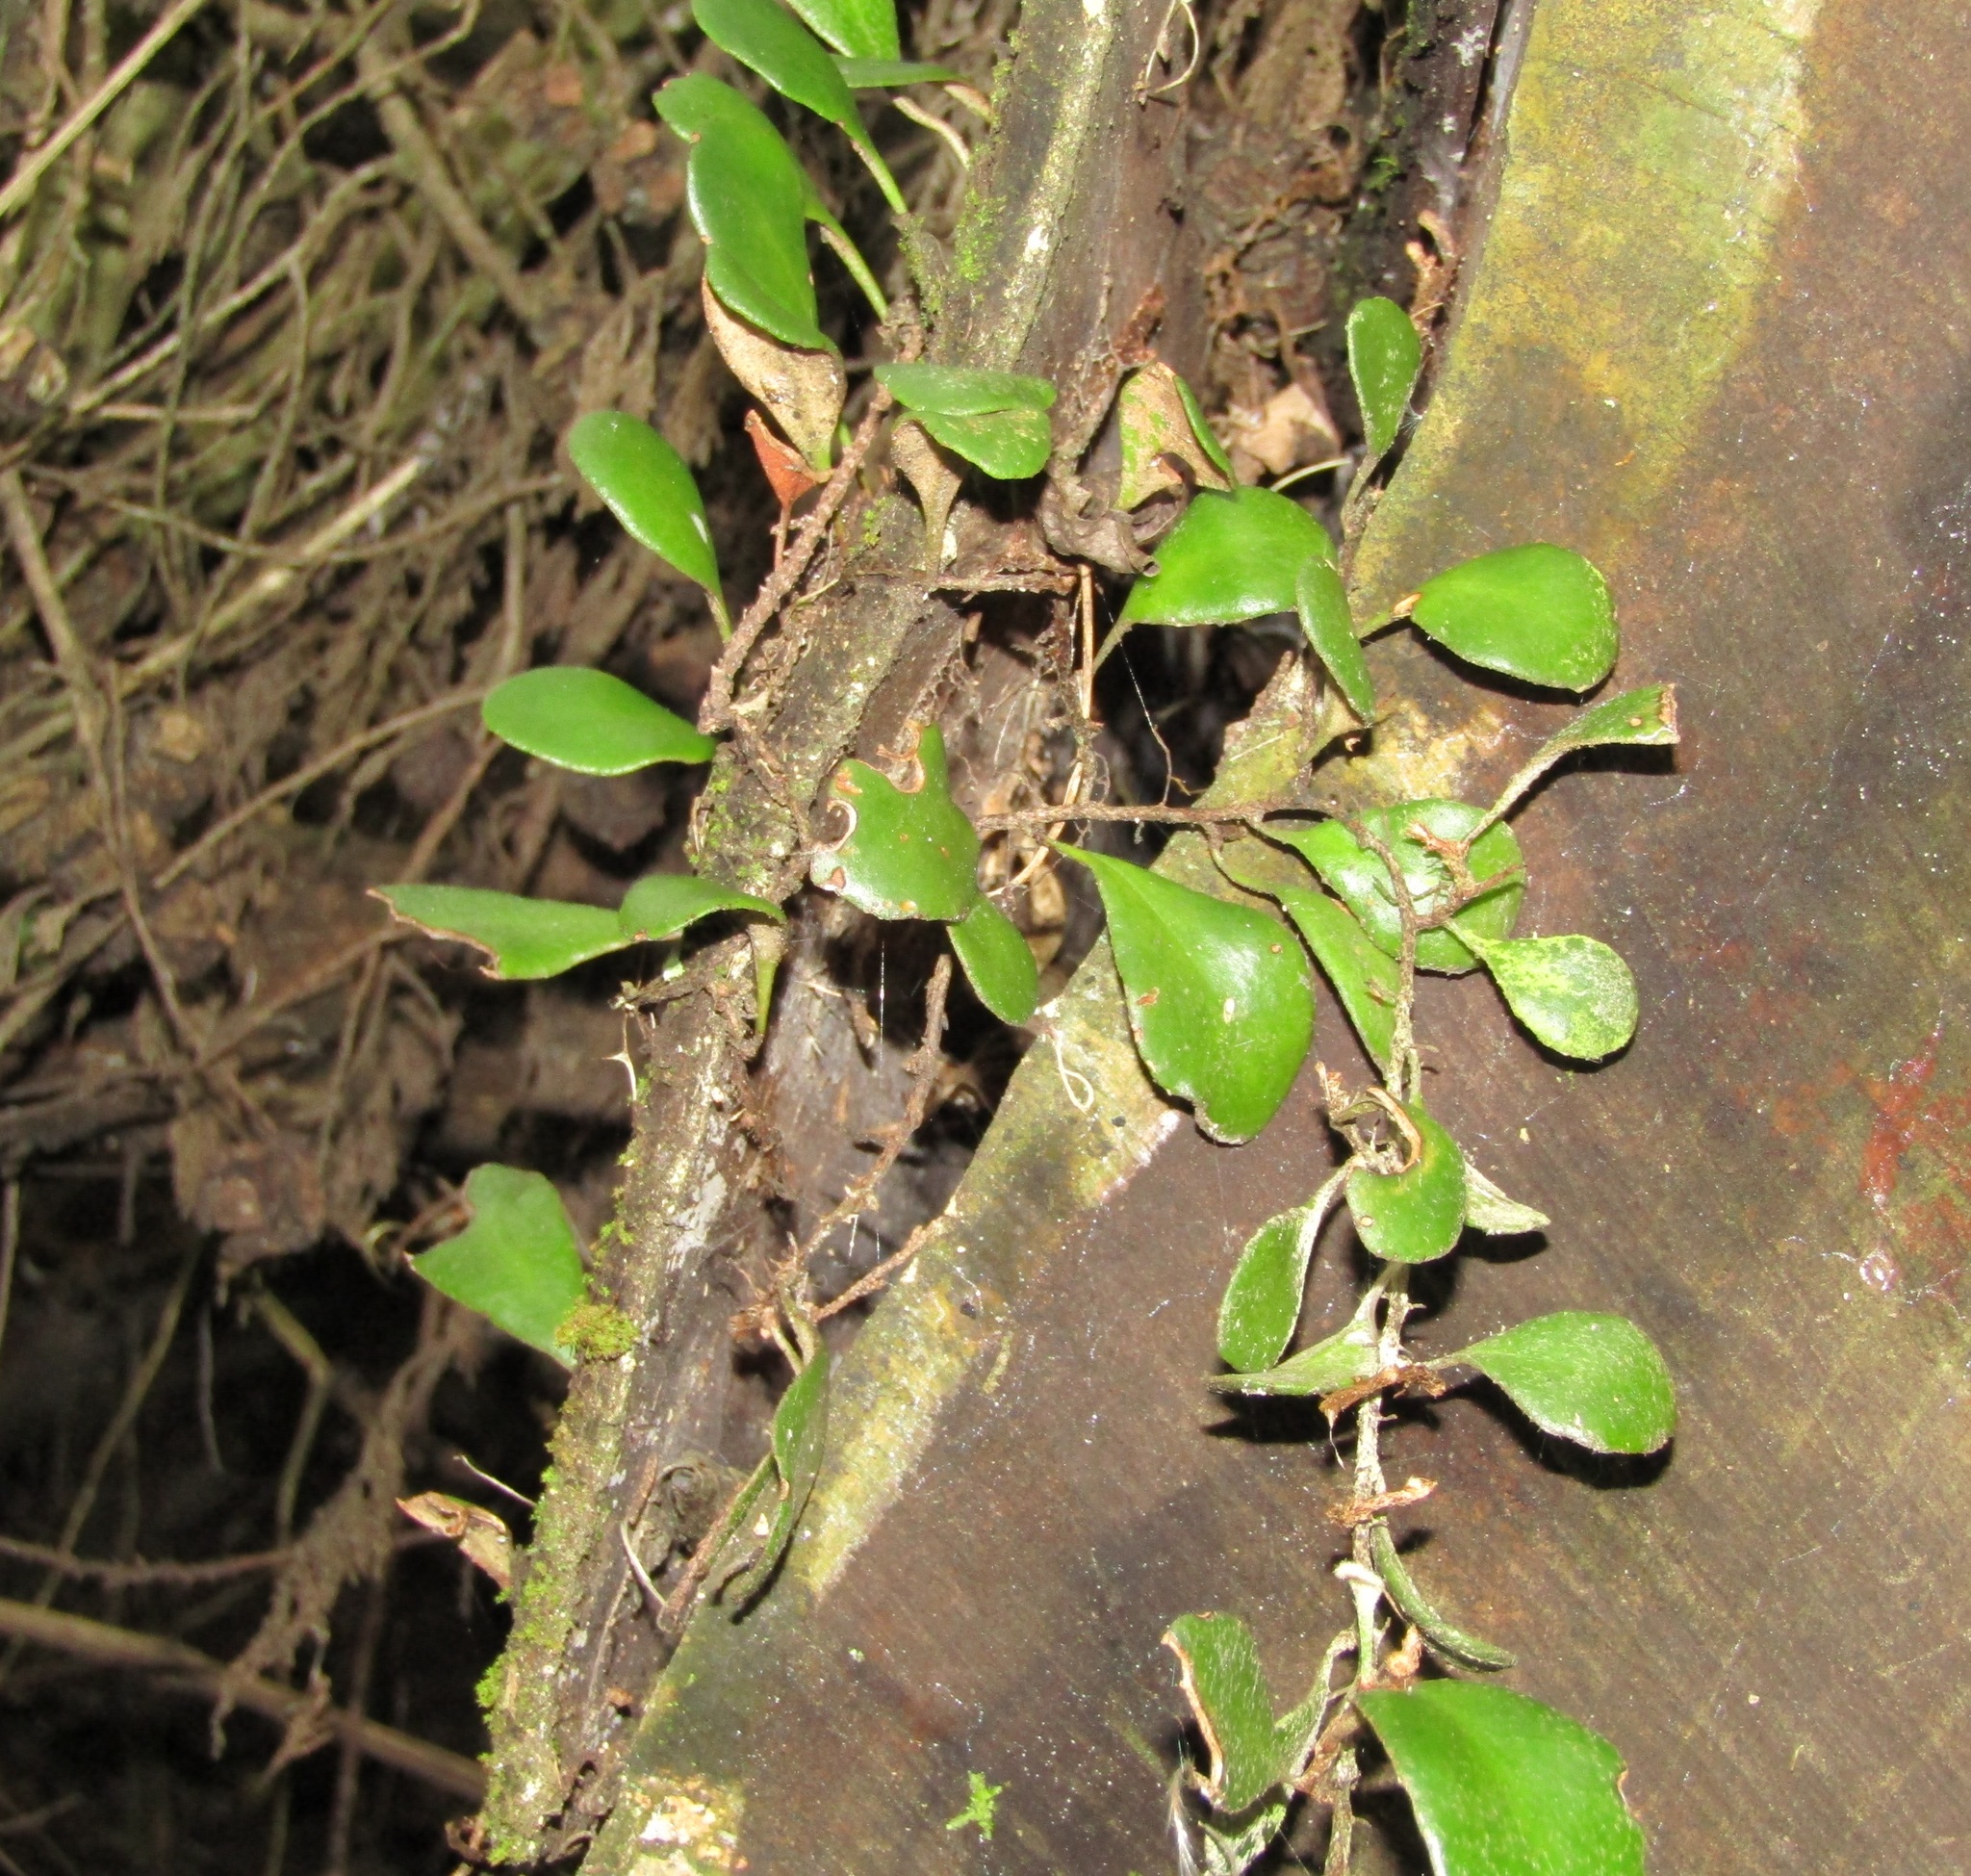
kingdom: Plantae
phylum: Tracheophyta
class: Polypodiopsida
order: Polypodiales
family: Polypodiaceae
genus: Pyrrosia
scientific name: Pyrrosia eleagnifolia
